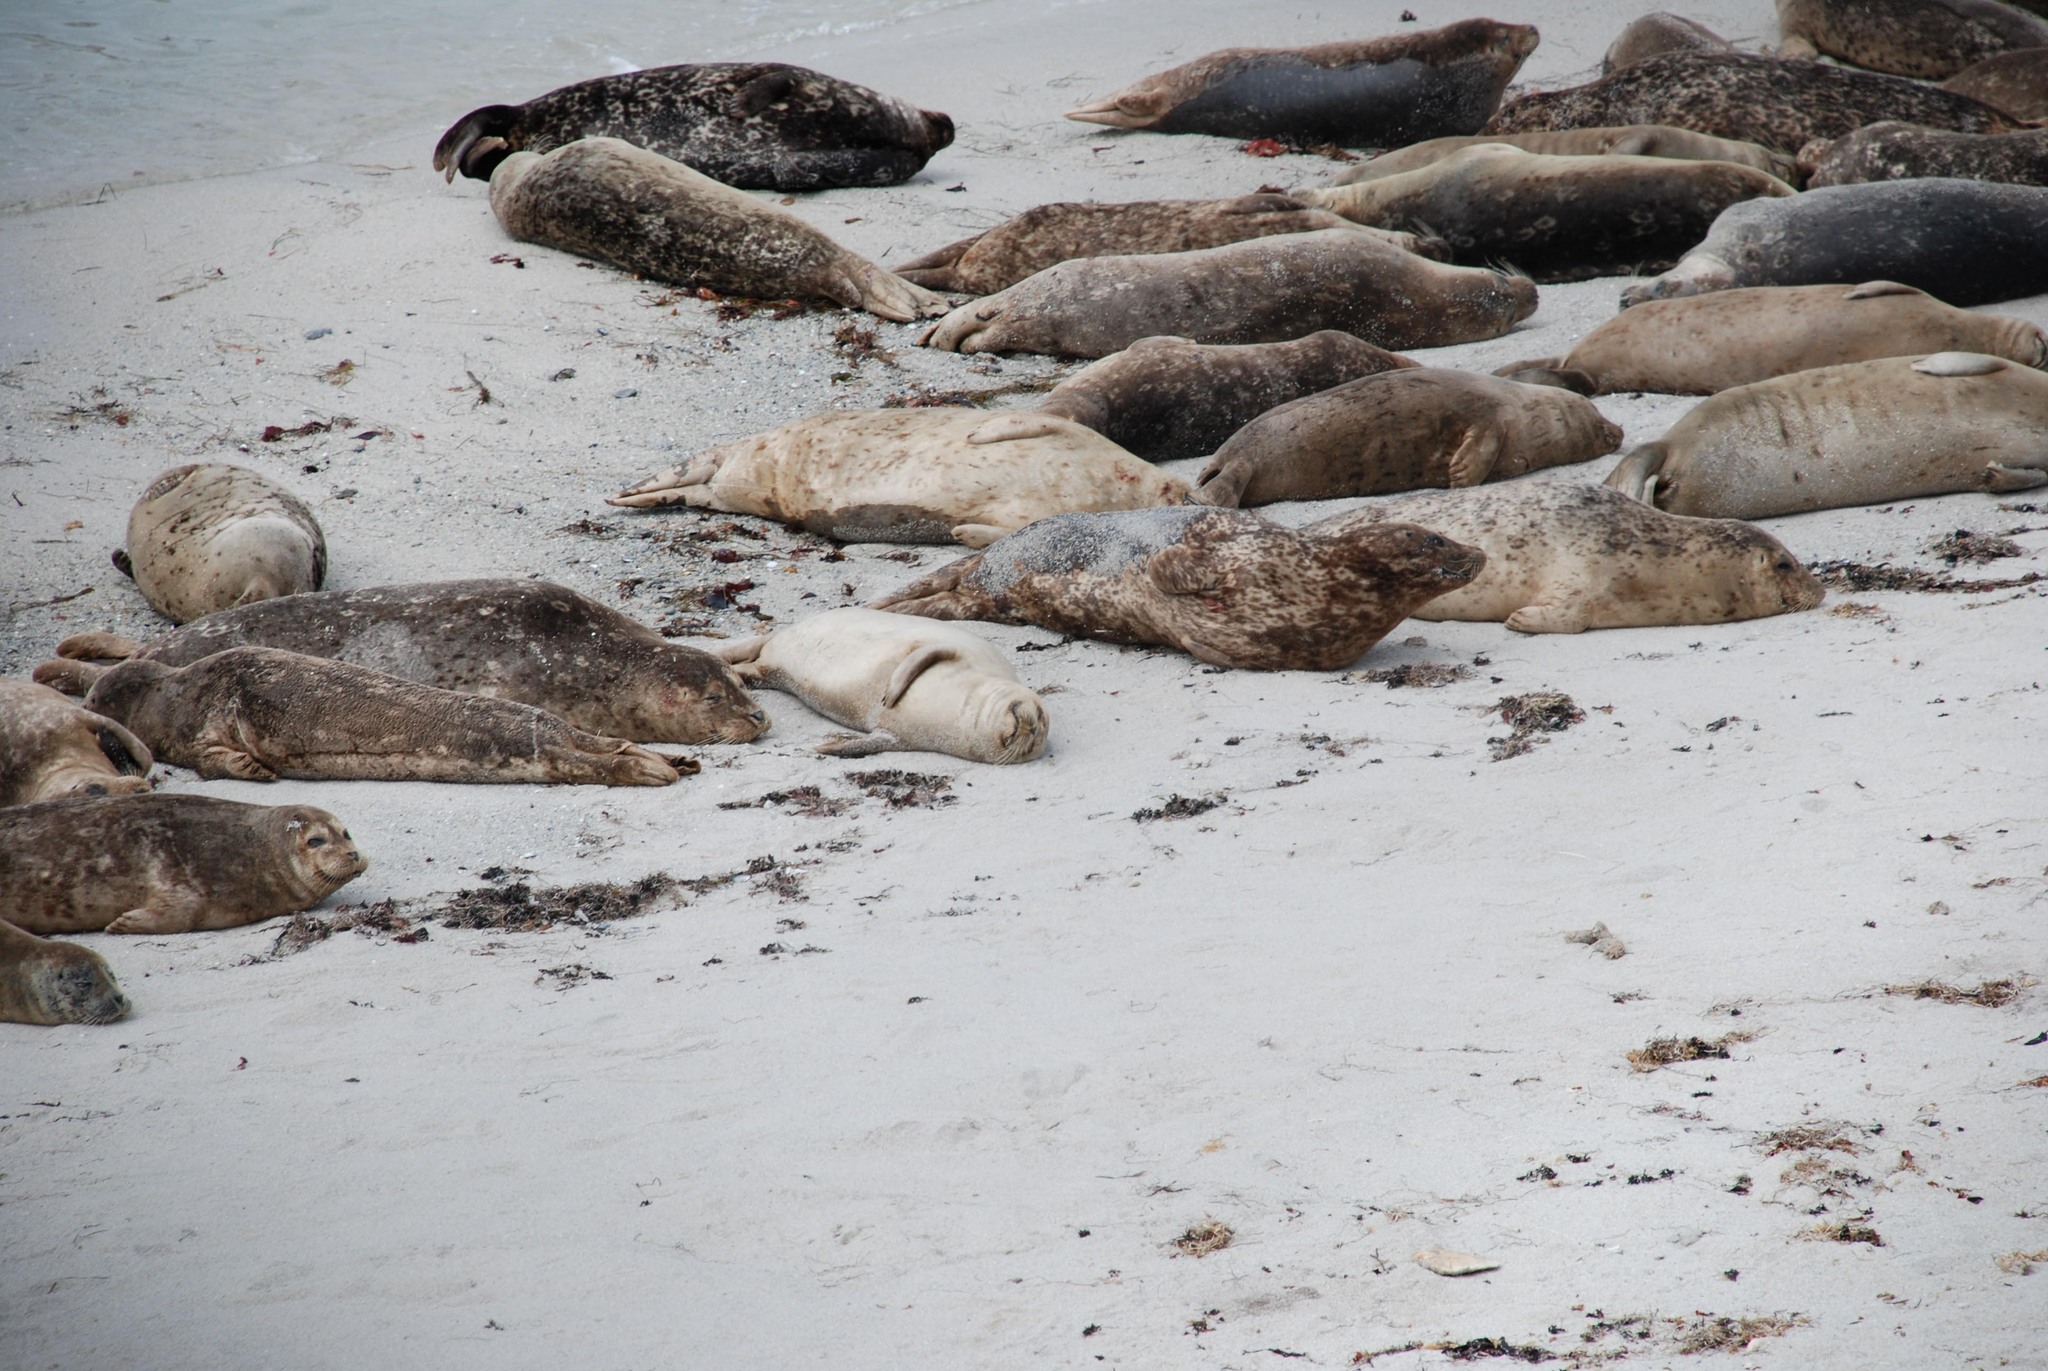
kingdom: Animalia
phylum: Chordata
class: Mammalia
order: Carnivora
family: Phocidae
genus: Phoca
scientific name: Phoca vitulina
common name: Harbor seal
